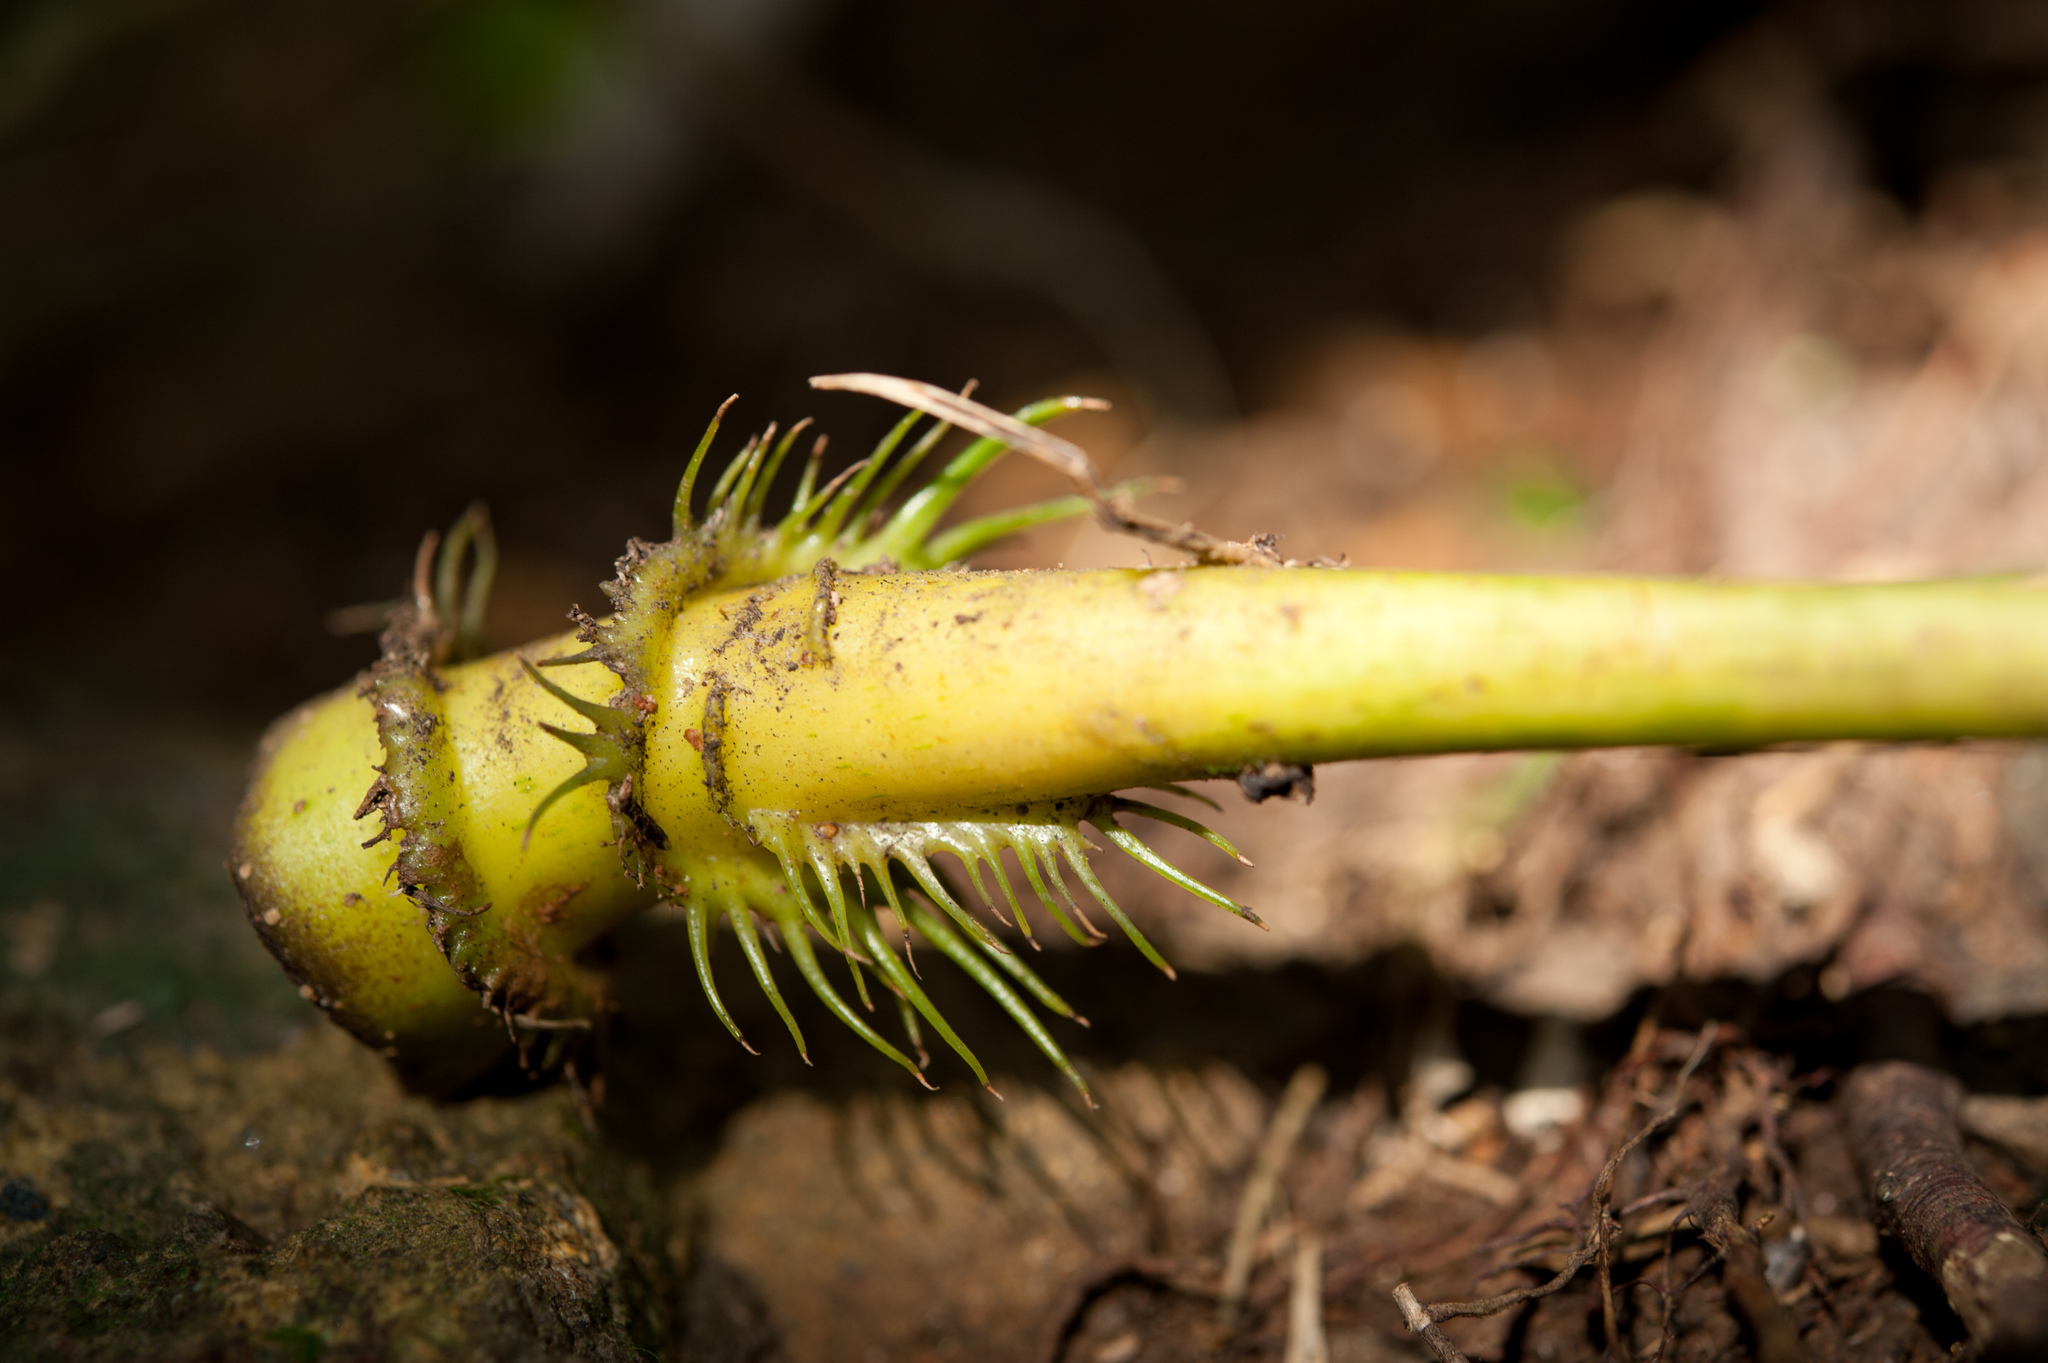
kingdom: Plantae
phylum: Tracheophyta
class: Magnoliopsida
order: Apiales
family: Araliaceae
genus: Osmoxylon
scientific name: Osmoxylon pectinatum
